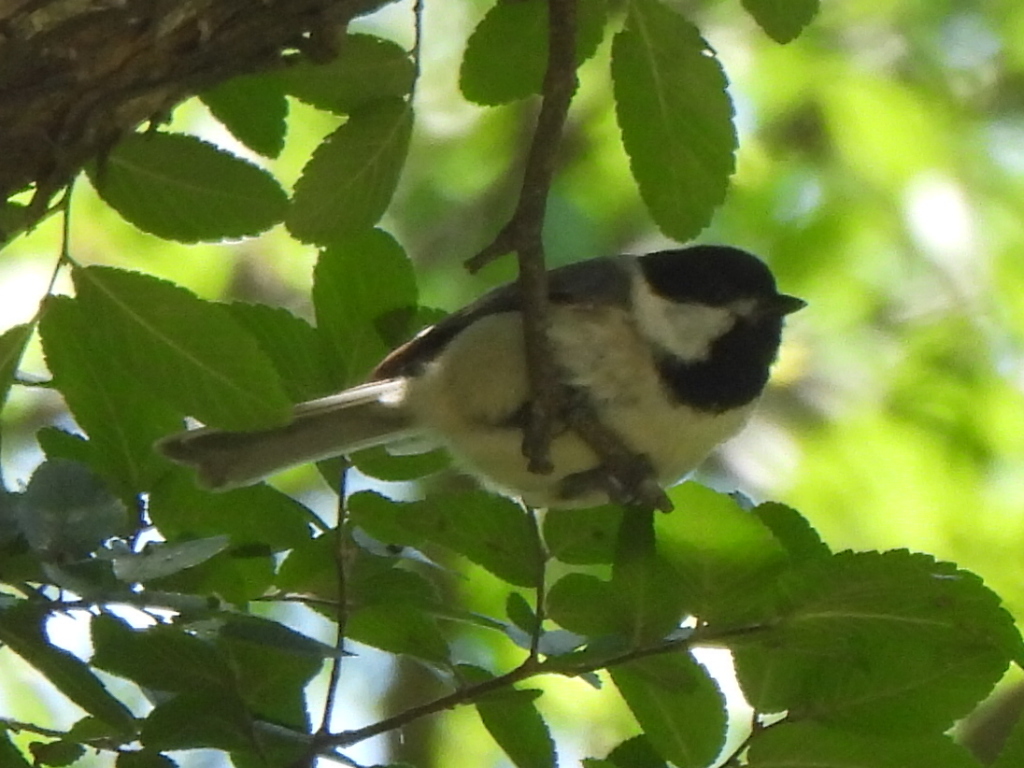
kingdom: Animalia
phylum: Chordata
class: Aves
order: Passeriformes
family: Paridae
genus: Poecile
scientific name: Poecile carolinensis
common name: Carolina chickadee
